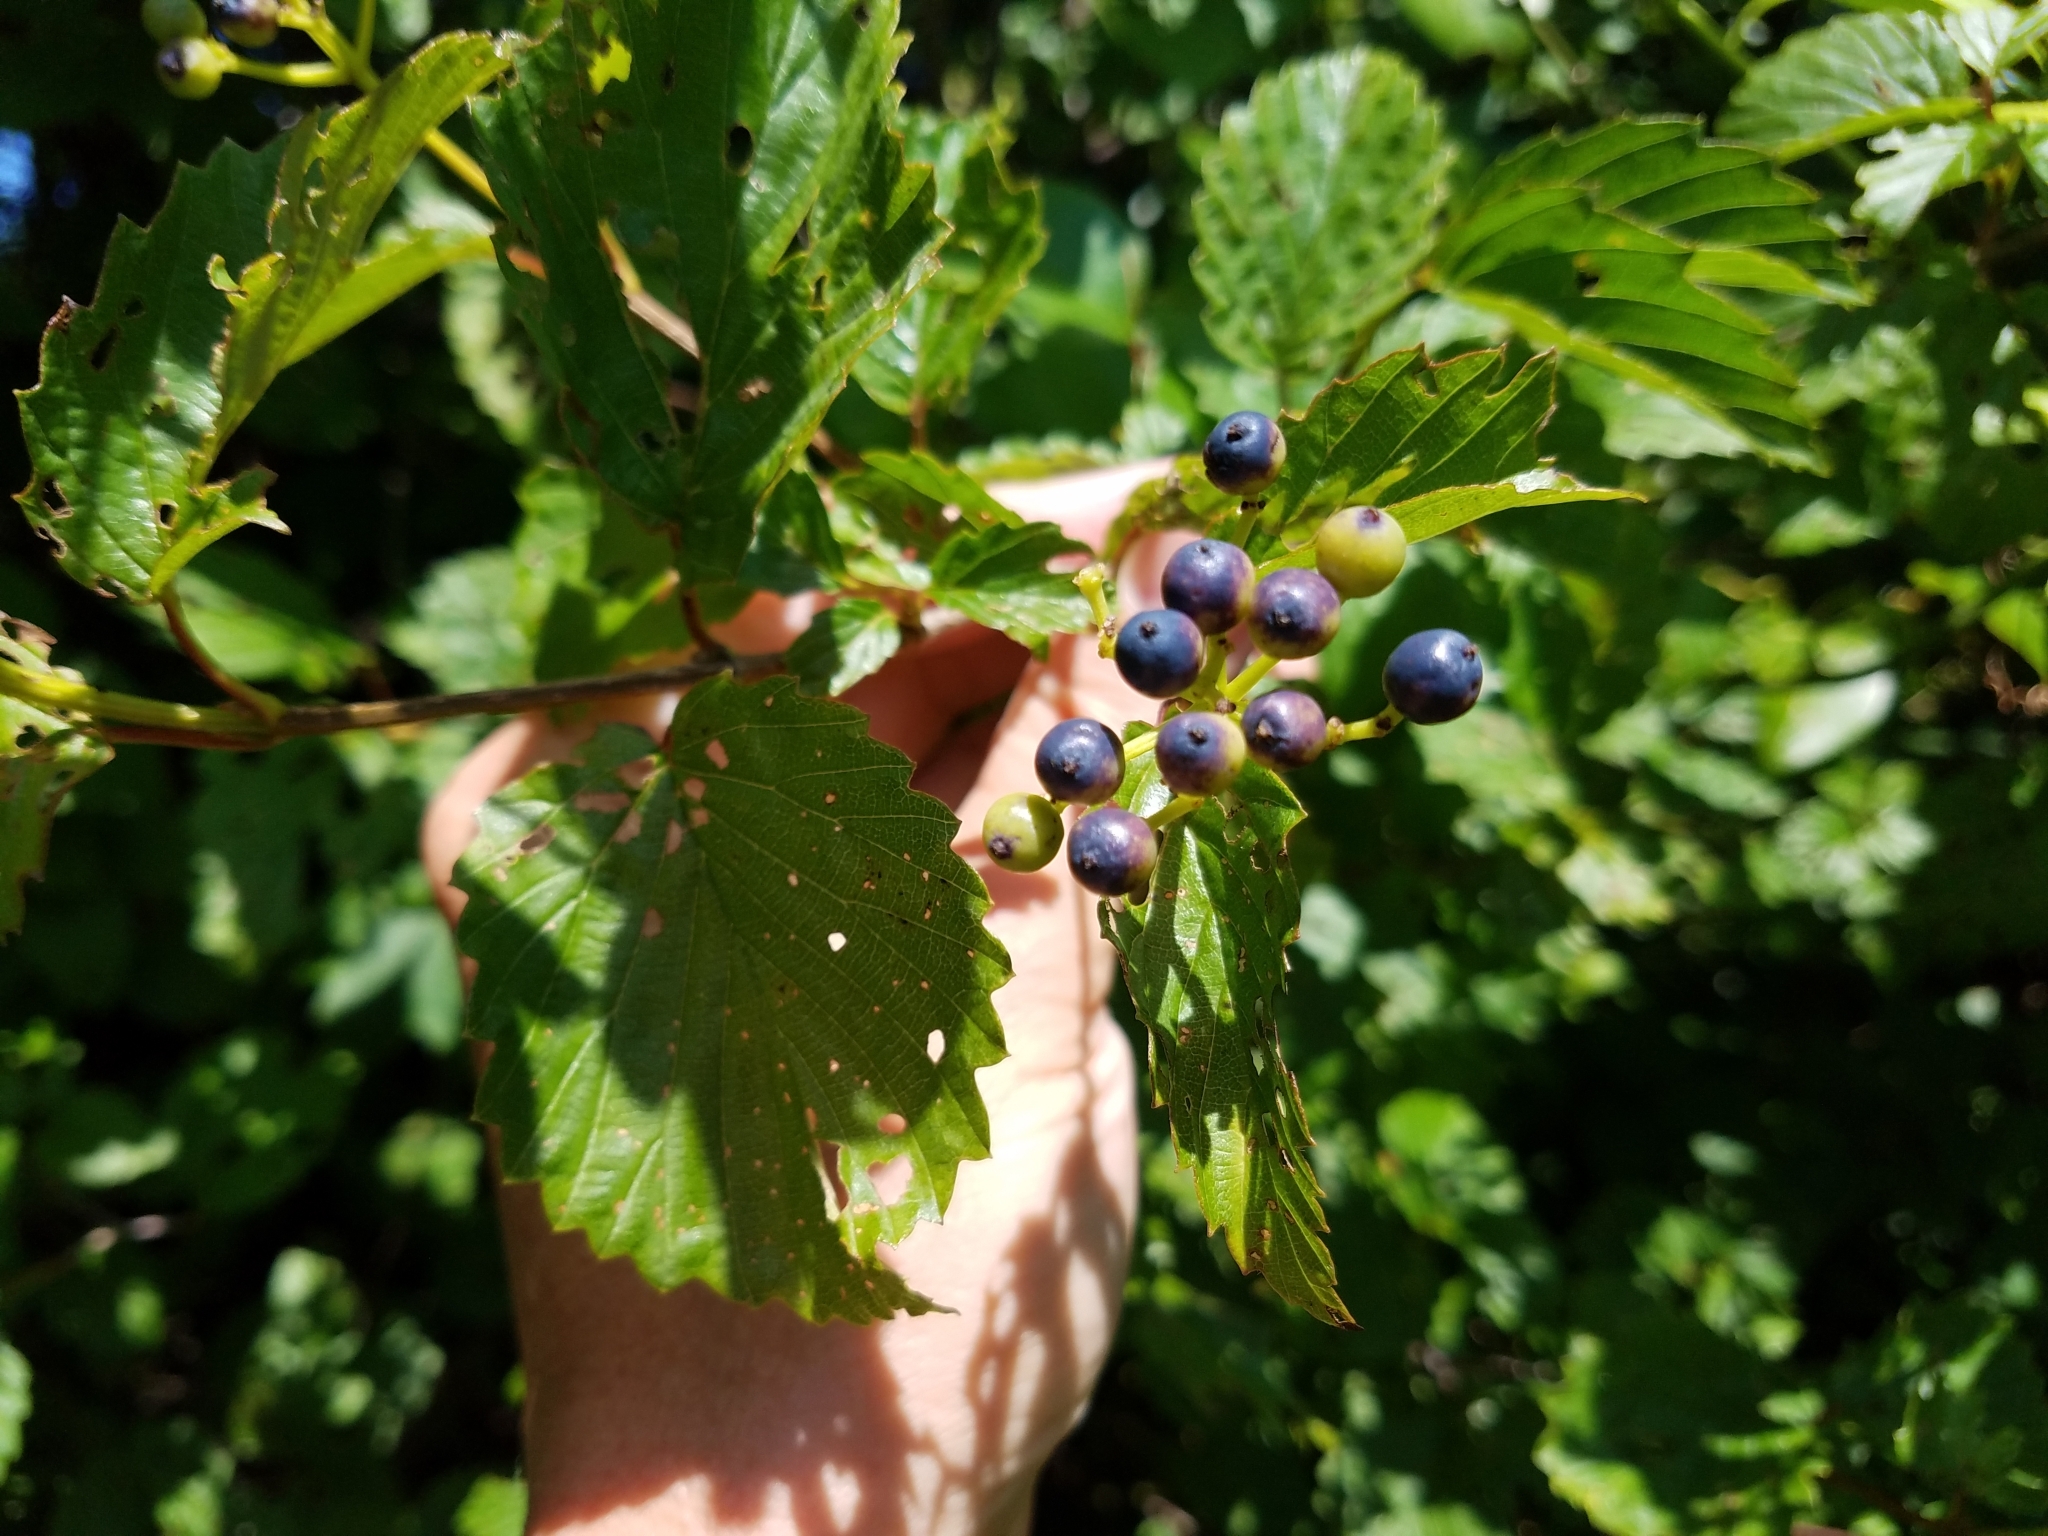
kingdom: Plantae
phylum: Tracheophyta
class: Magnoliopsida
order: Dipsacales
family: Viburnaceae
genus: Viburnum
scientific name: Viburnum dentatum
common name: Arrow-wood
